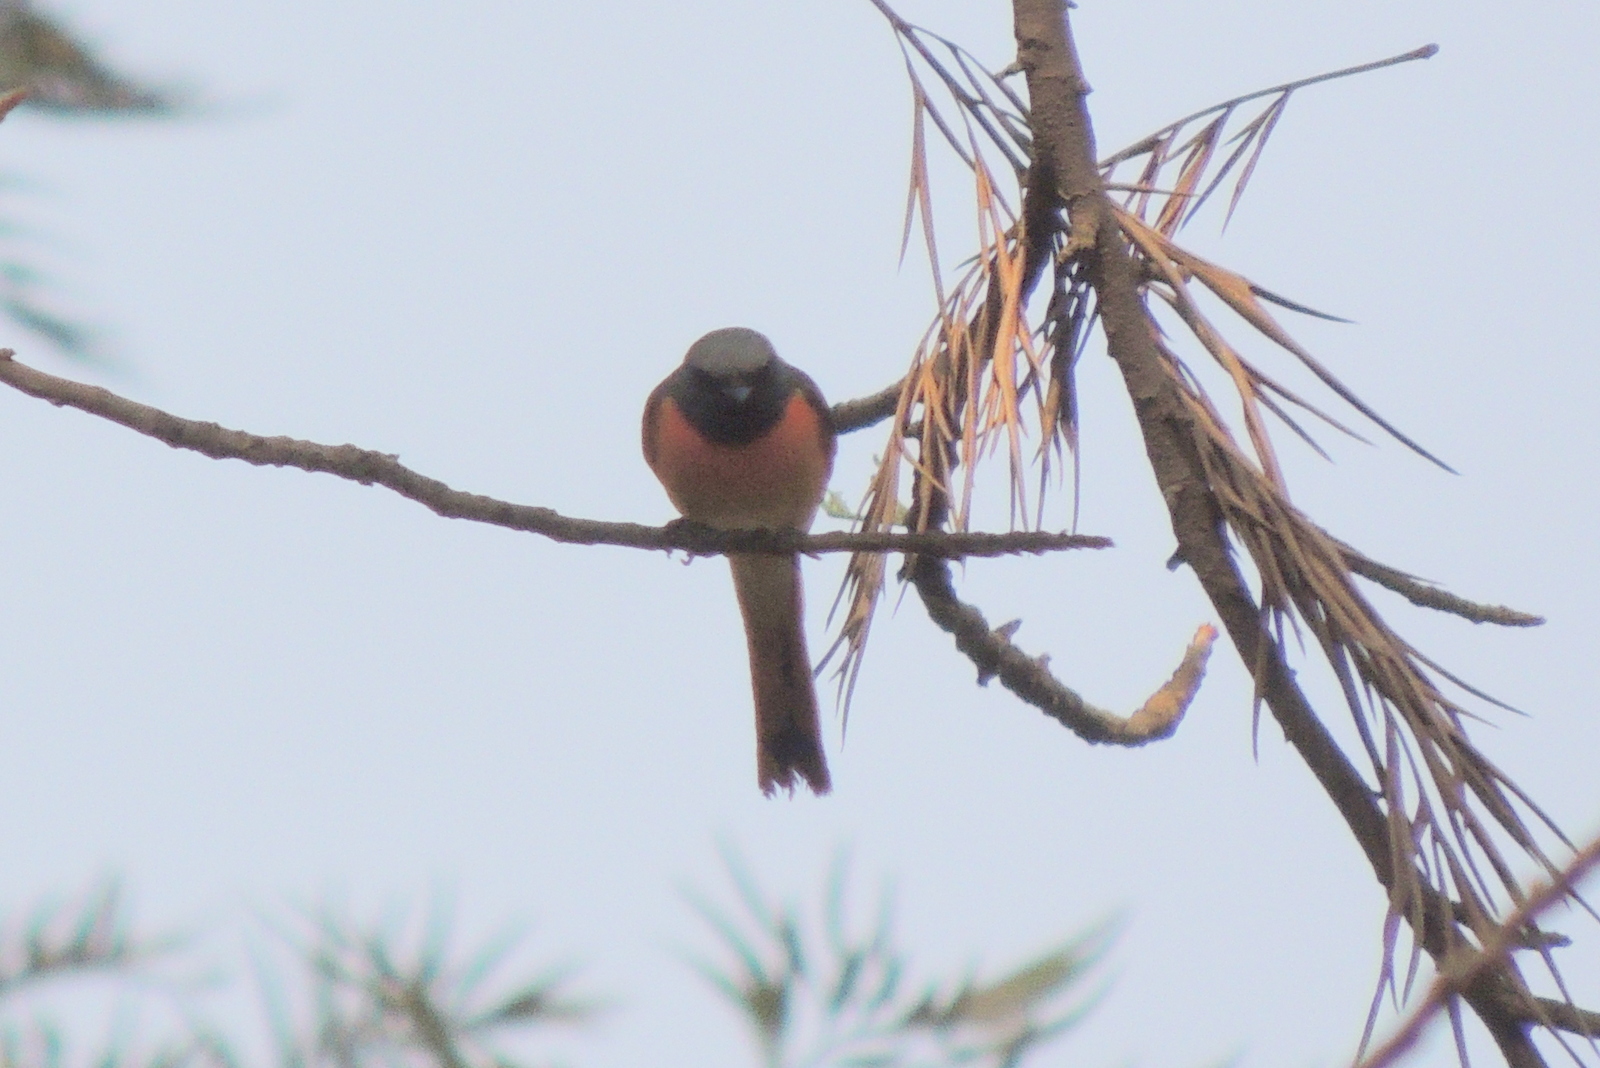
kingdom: Animalia
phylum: Chordata
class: Aves
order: Passeriformes
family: Campephagidae
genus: Pericrocotus
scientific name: Pericrocotus cinnamomeus
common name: Small minivet
